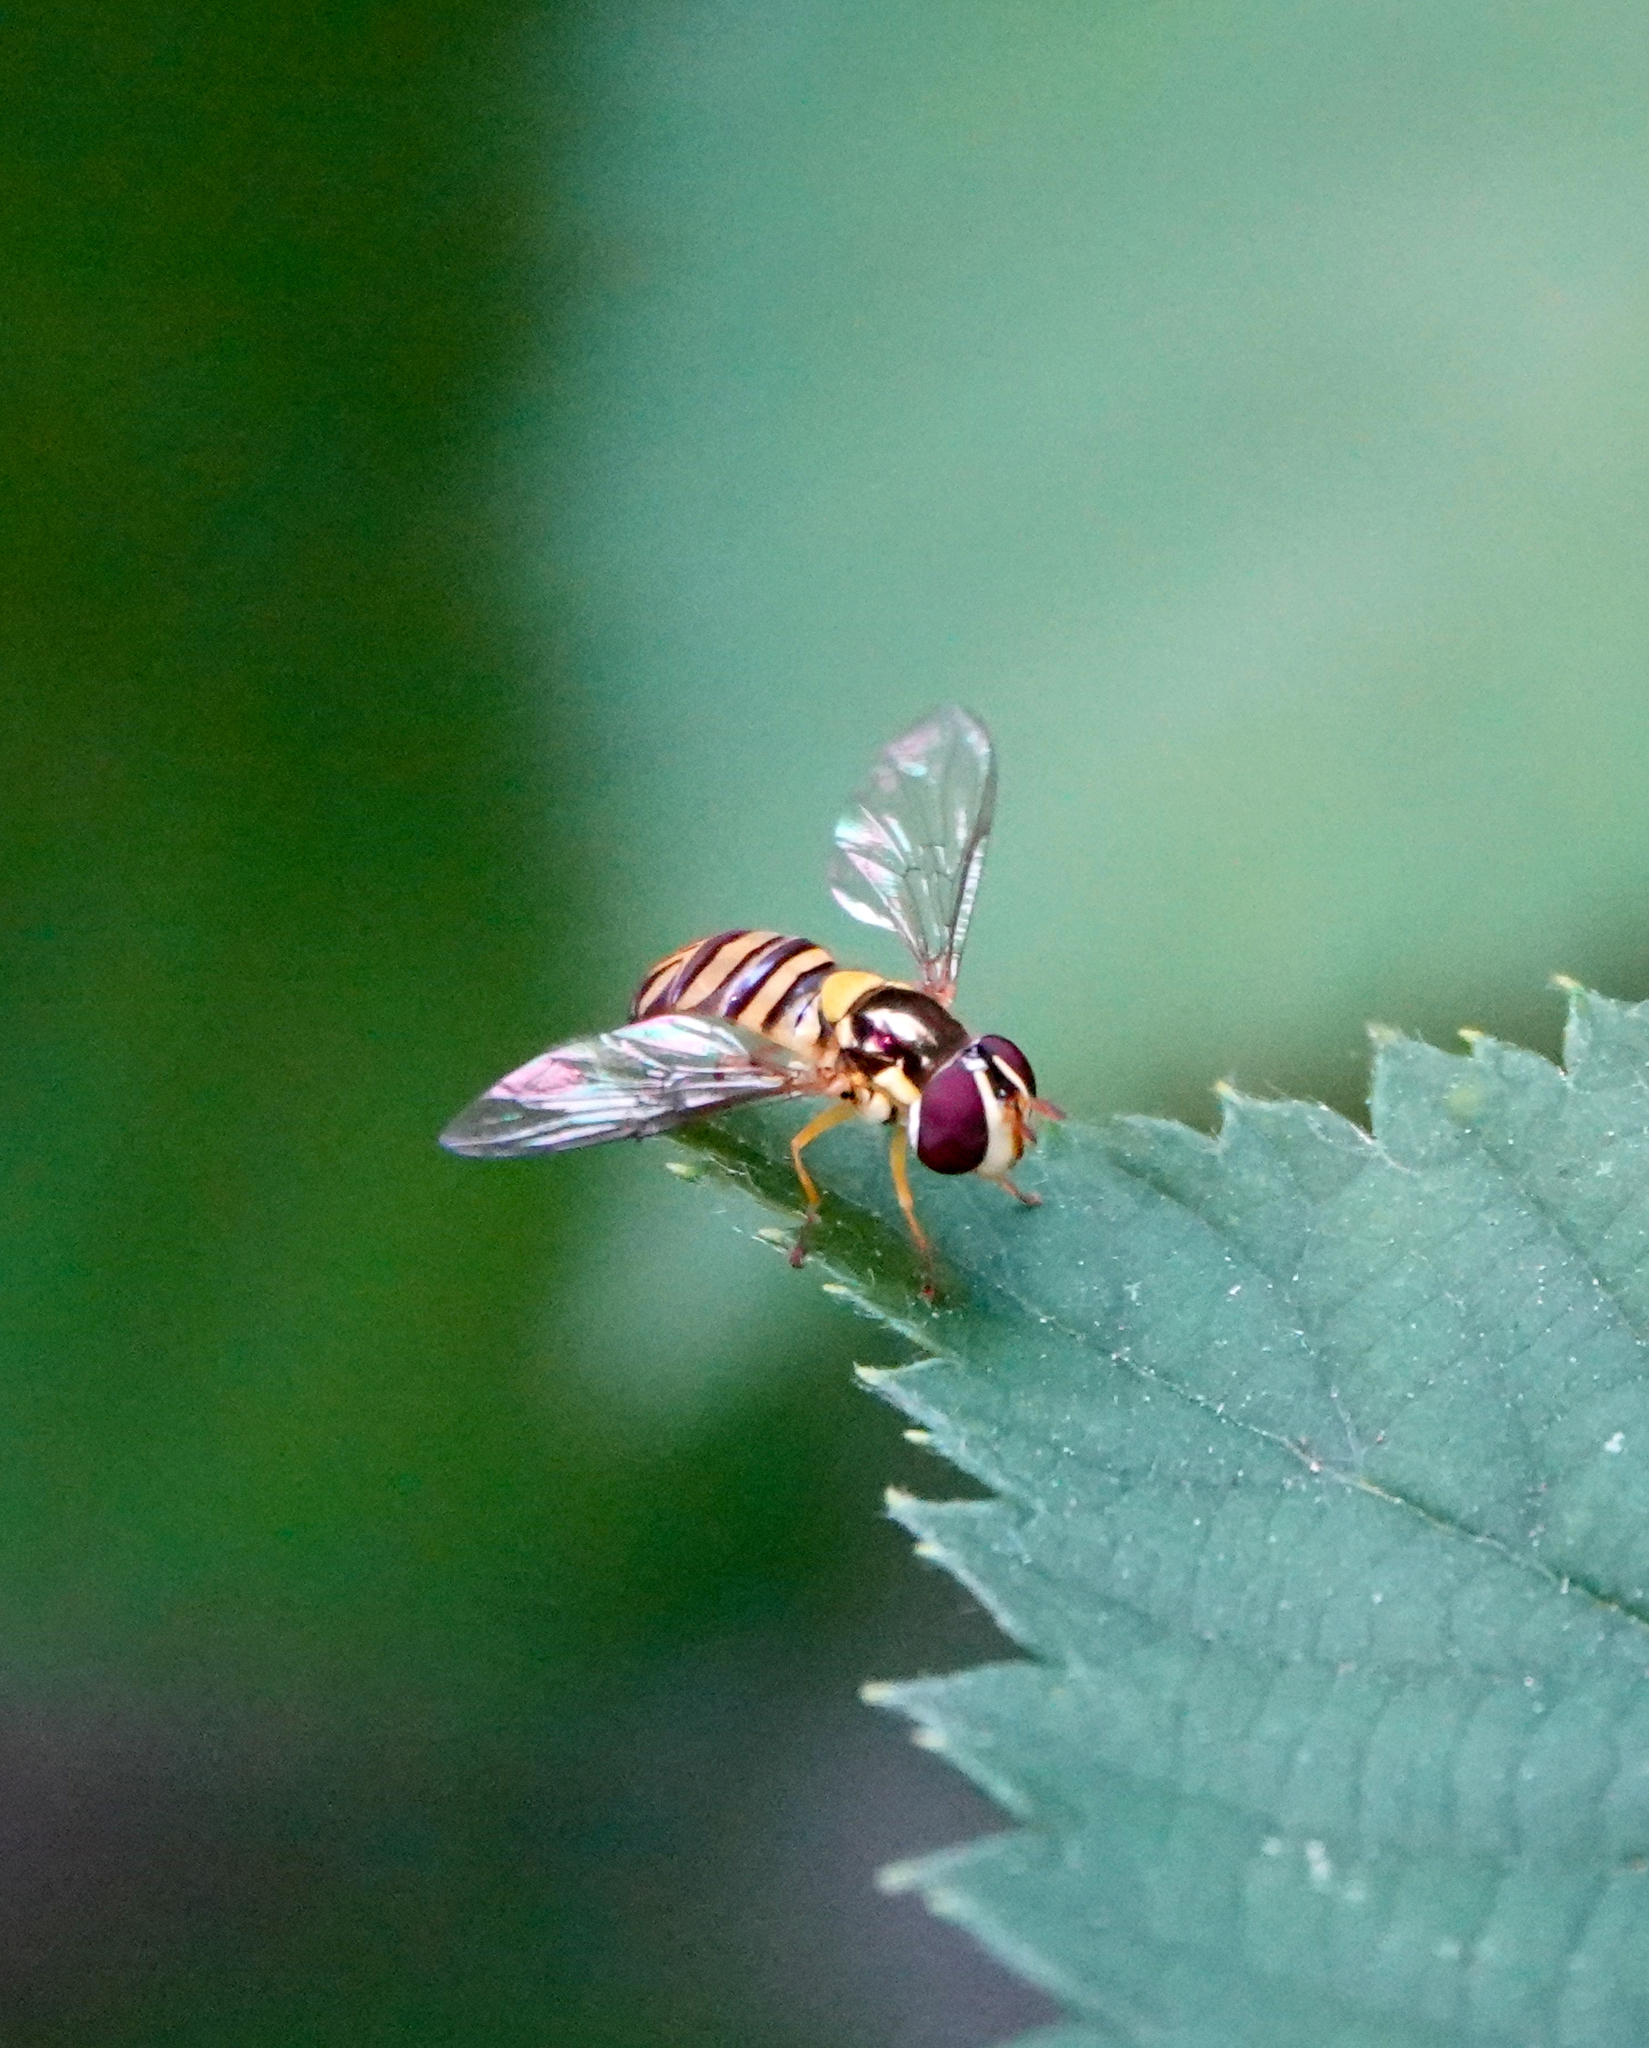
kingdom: Animalia
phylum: Arthropoda
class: Insecta
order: Diptera
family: Syrphidae
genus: Allograpta
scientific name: Allograpta exotica
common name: Syrphid fly
